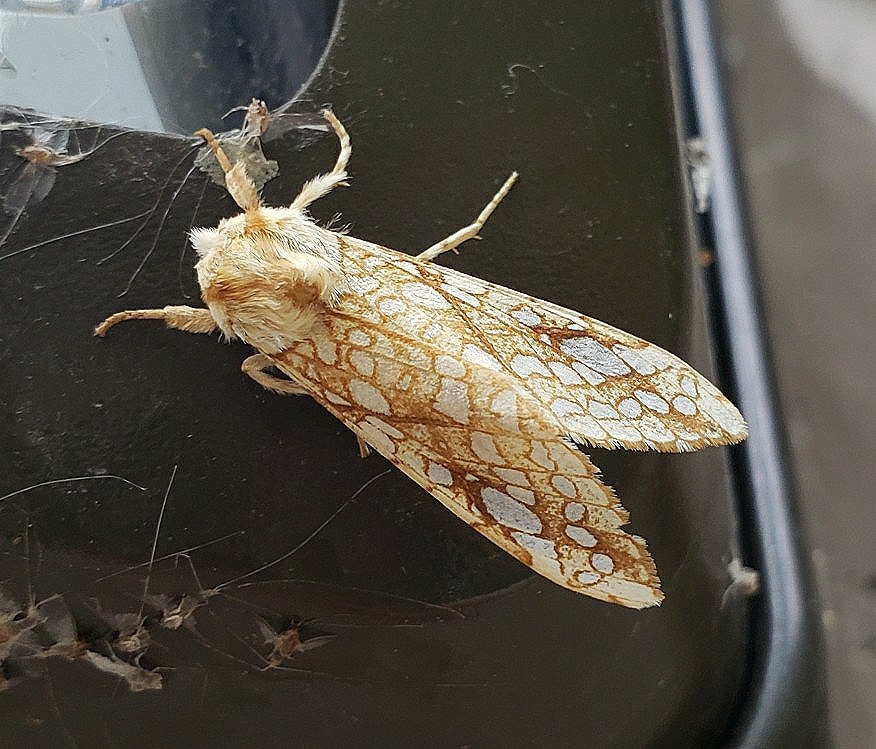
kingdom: Animalia
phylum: Arthropoda
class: Insecta
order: Lepidoptera
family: Erebidae
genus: Lophocampa
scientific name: Lophocampa caryae
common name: Hickory tussock moth
